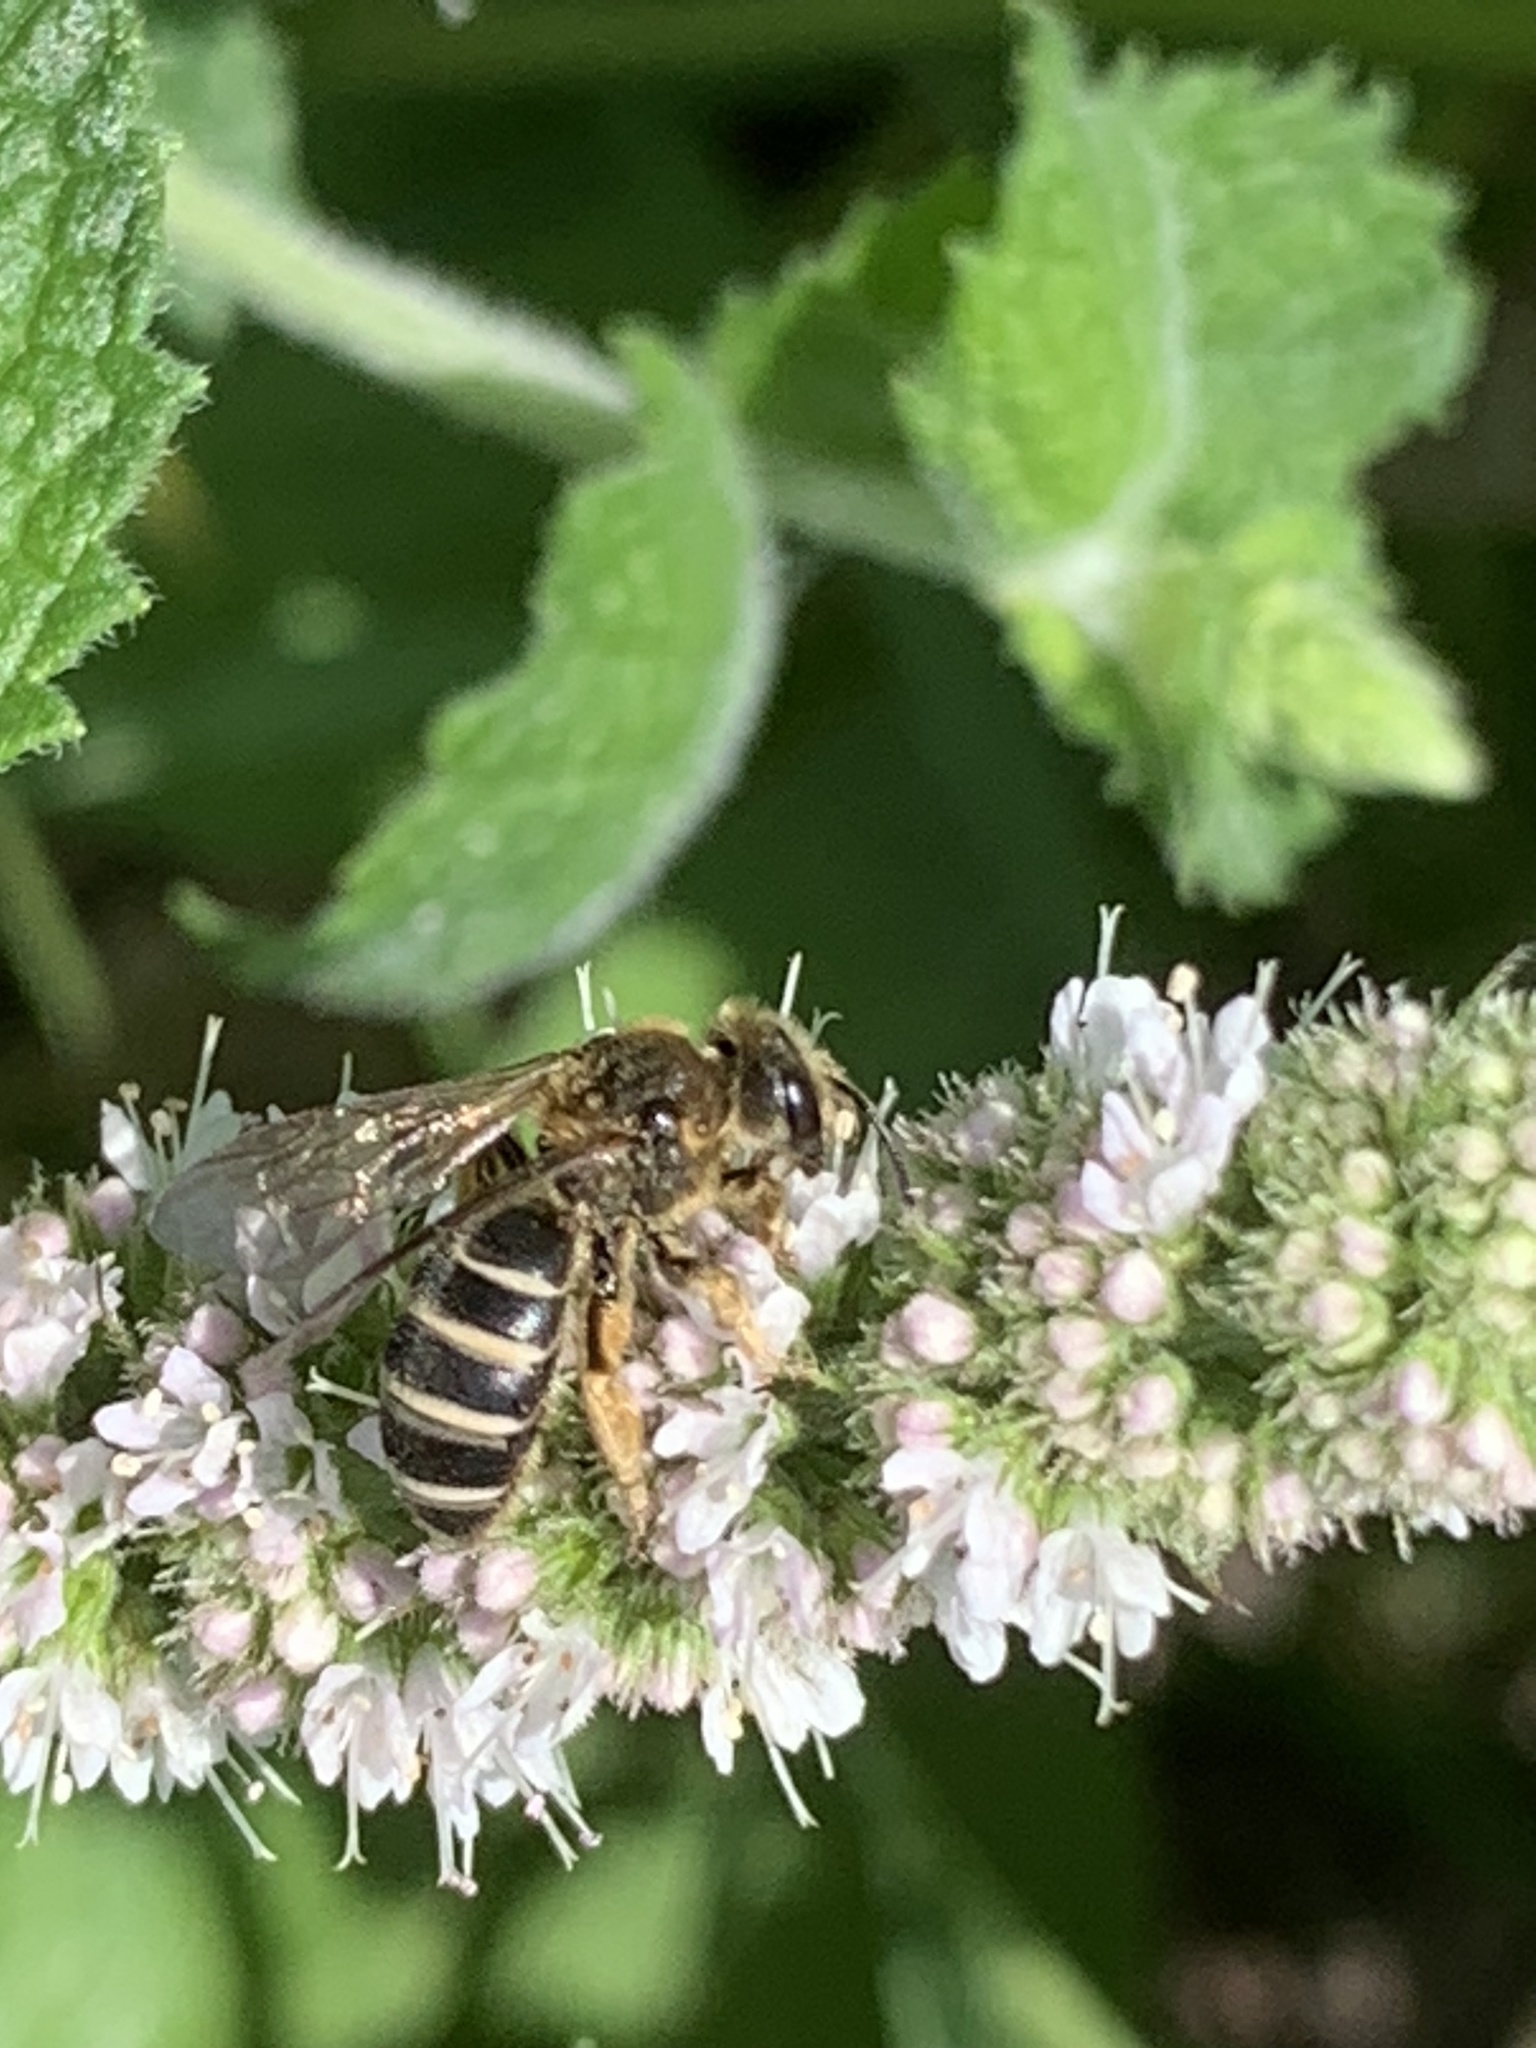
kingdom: Animalia
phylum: Arthropoda
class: Insecta
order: Hymenoptera
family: Halictidae
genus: Halictus
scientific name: Halictus rubicundus
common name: Orange-legged furrow bee
